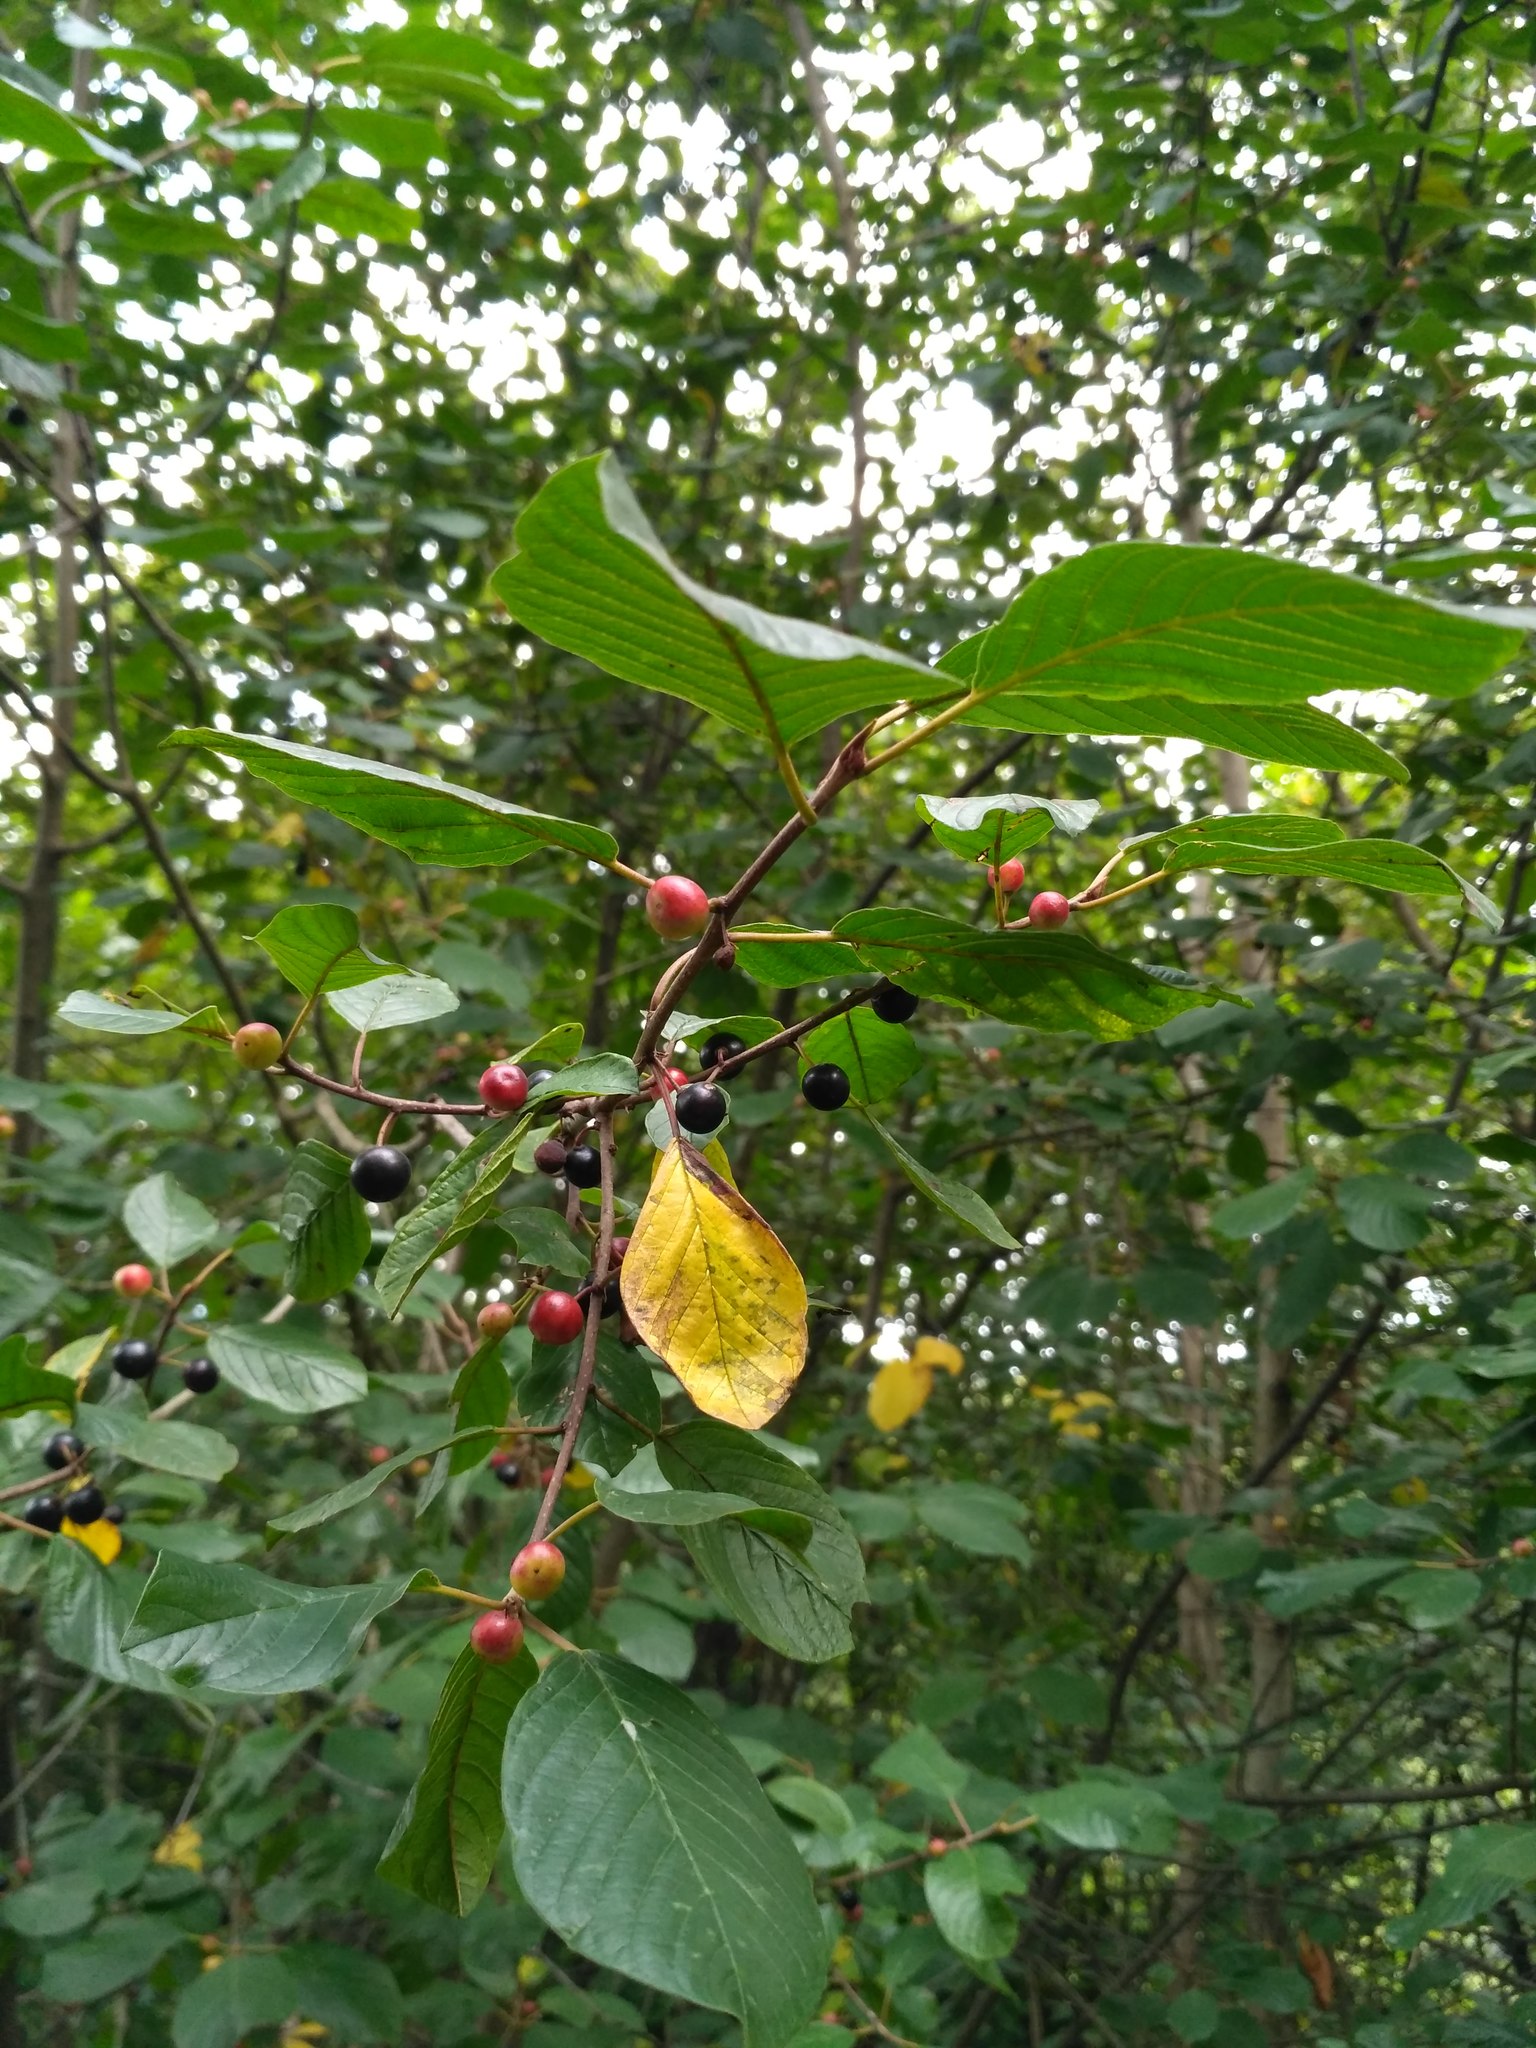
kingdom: Plantae
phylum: Tracheophyta
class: Magnoliopsida
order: Rosales
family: Rhamnaceae
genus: Frangula
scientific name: Frangula alnus
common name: Alder buckthorn
